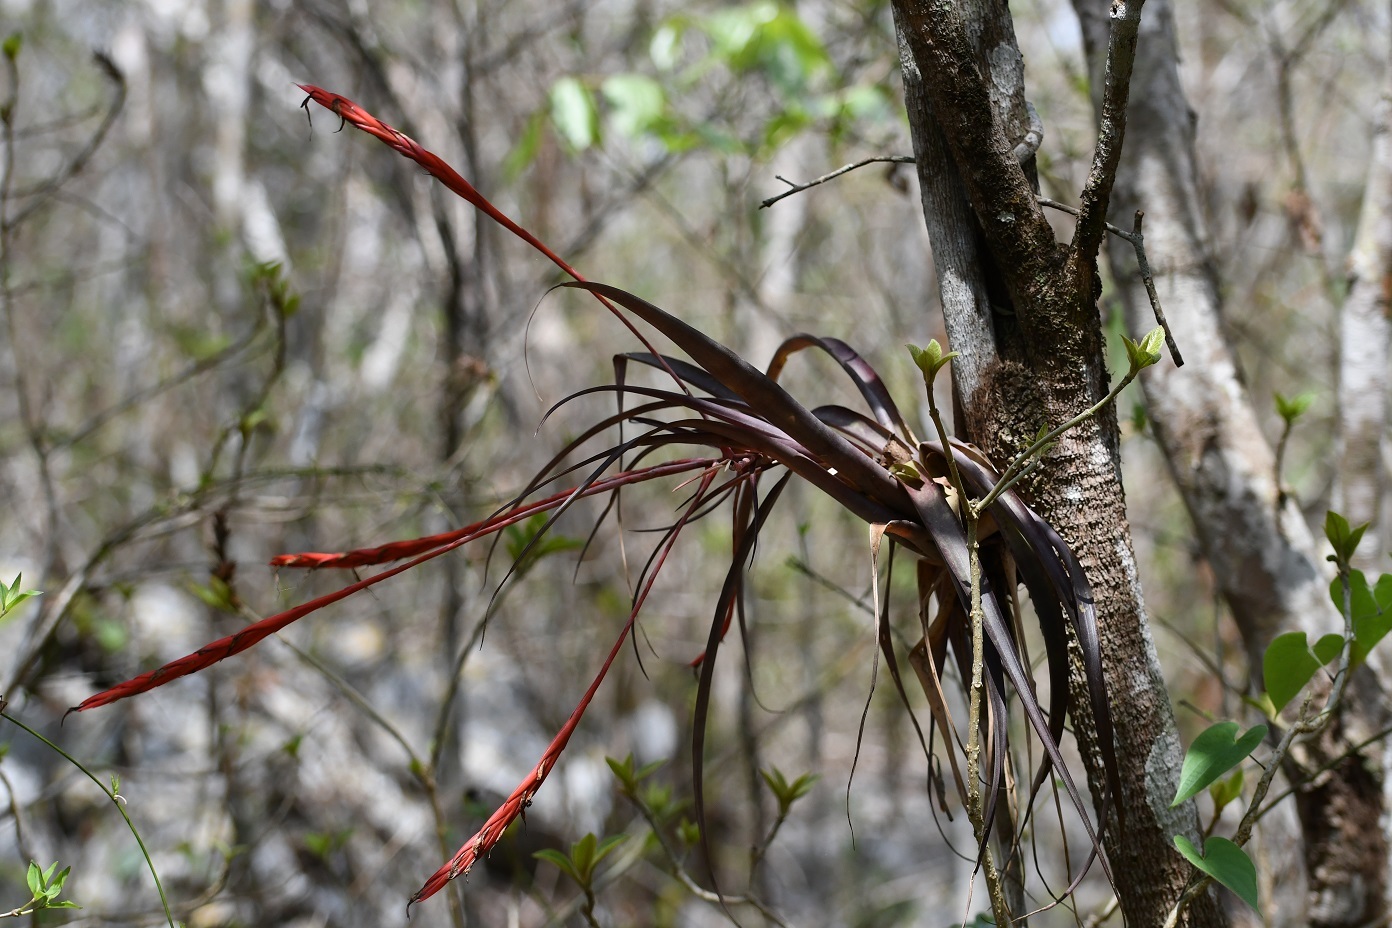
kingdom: Plantae
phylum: Tracheophyta
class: Liliopsida
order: Poales
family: Bromeliaceae
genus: Tillandsia
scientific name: Tillandsia flabellata
